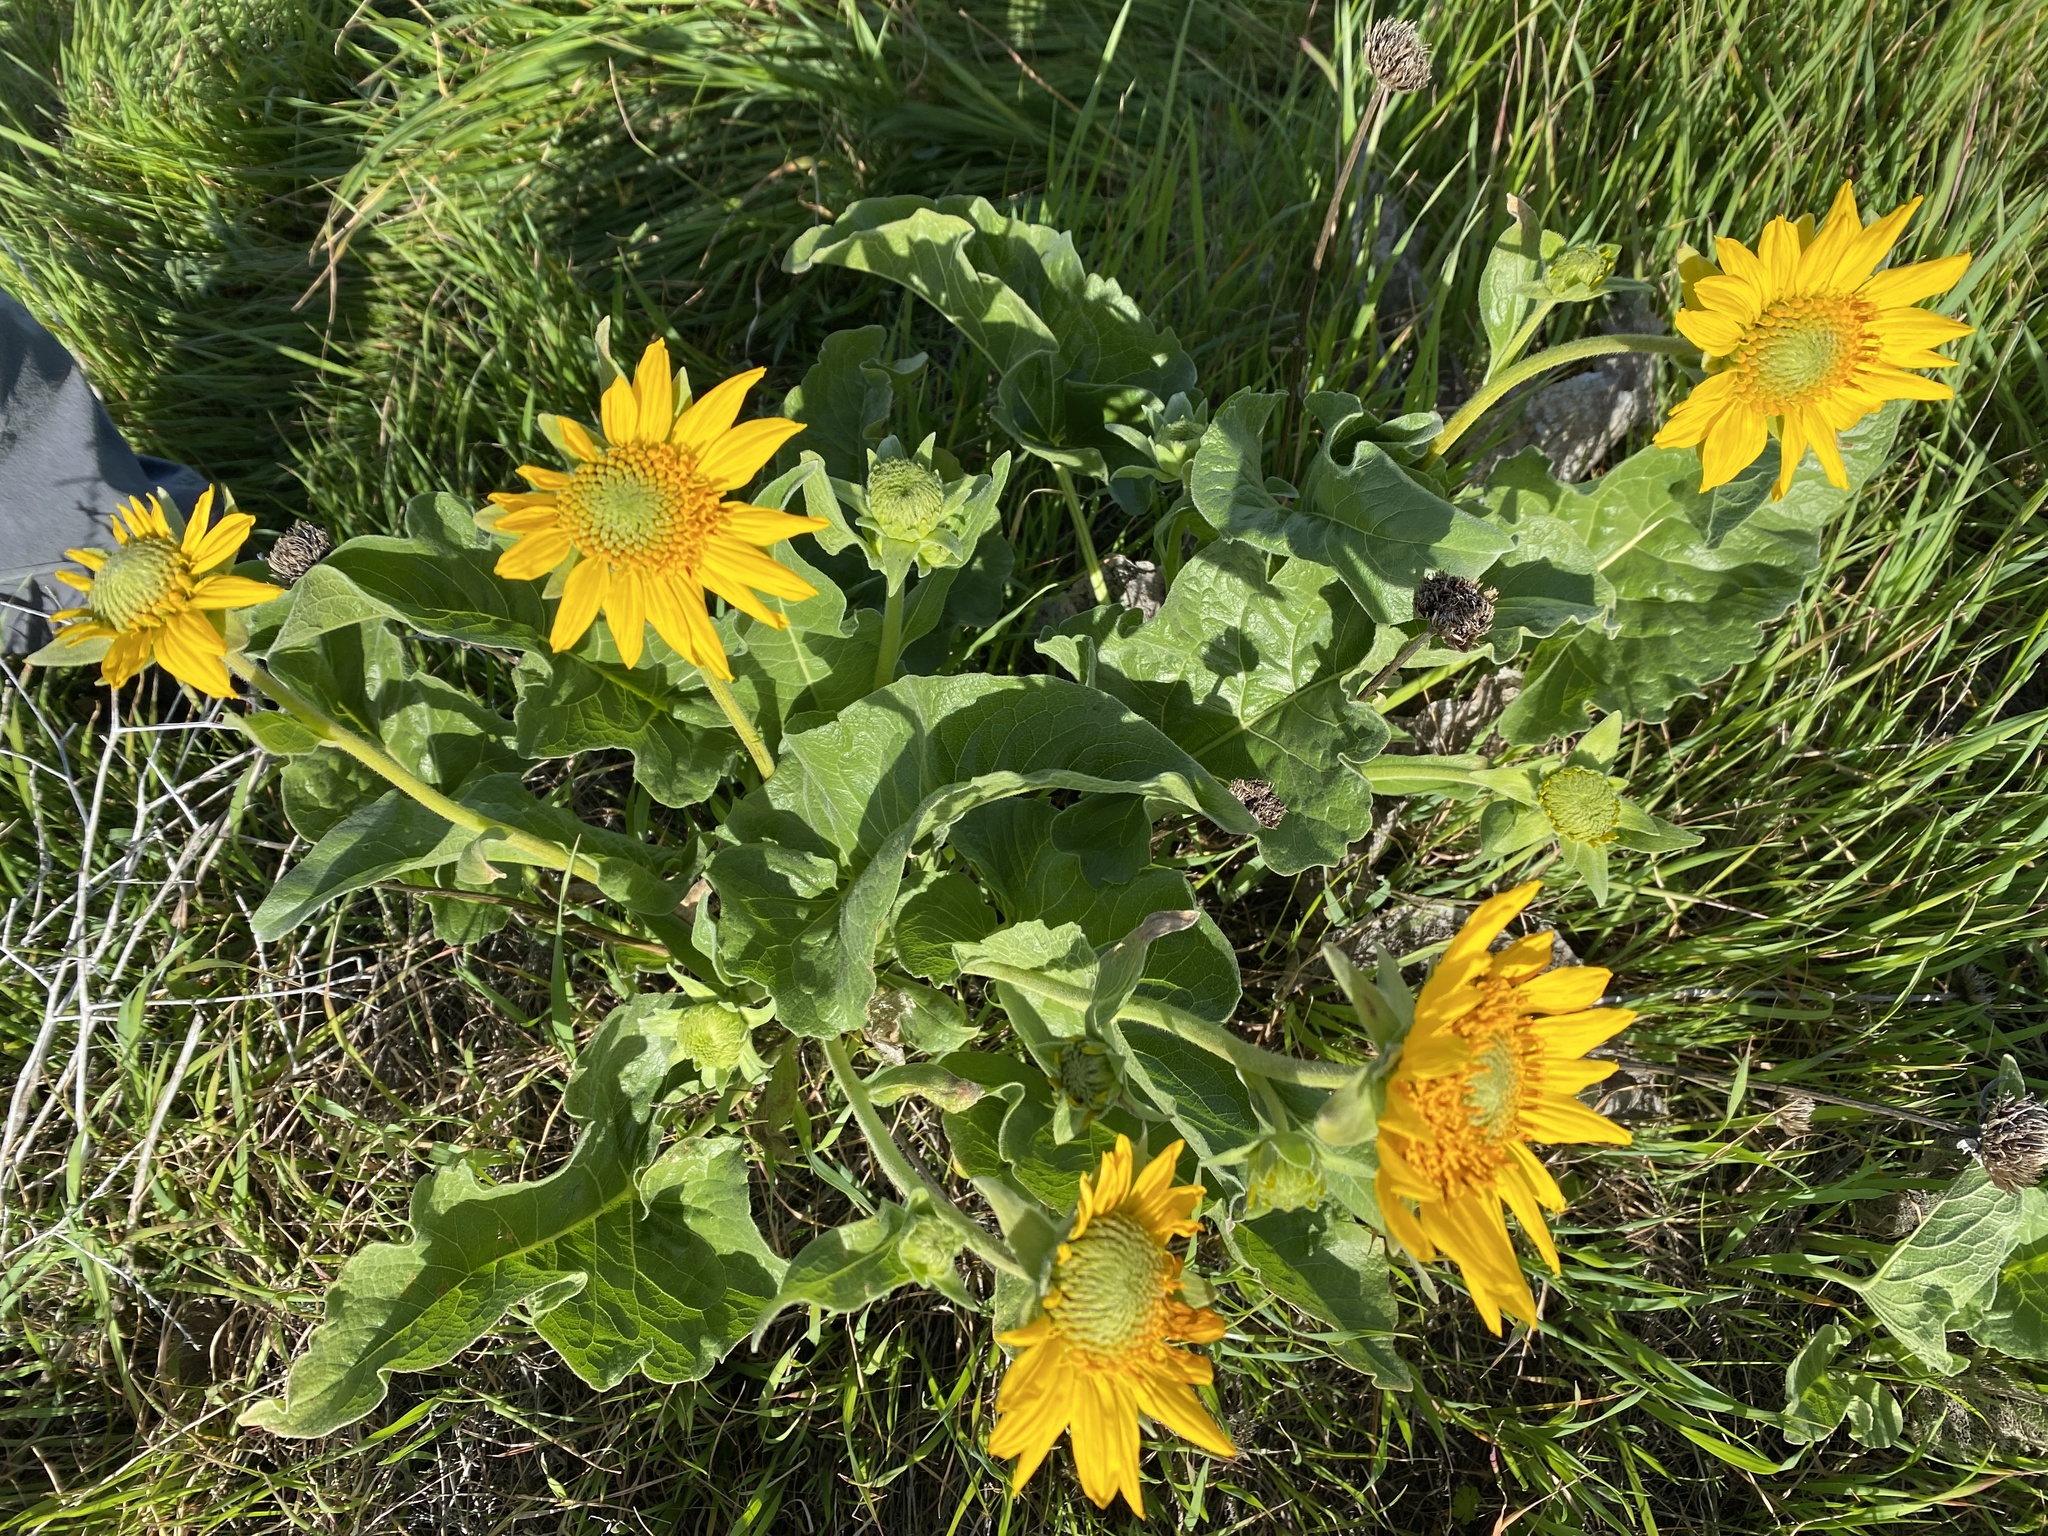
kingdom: Plantae
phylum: Tracheophyta
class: Magnoliopsida
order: Asterales
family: Asteraceae
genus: Balsamorhiza
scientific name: Balsamorhiza deltoidea
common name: Deltoid balsamroot
